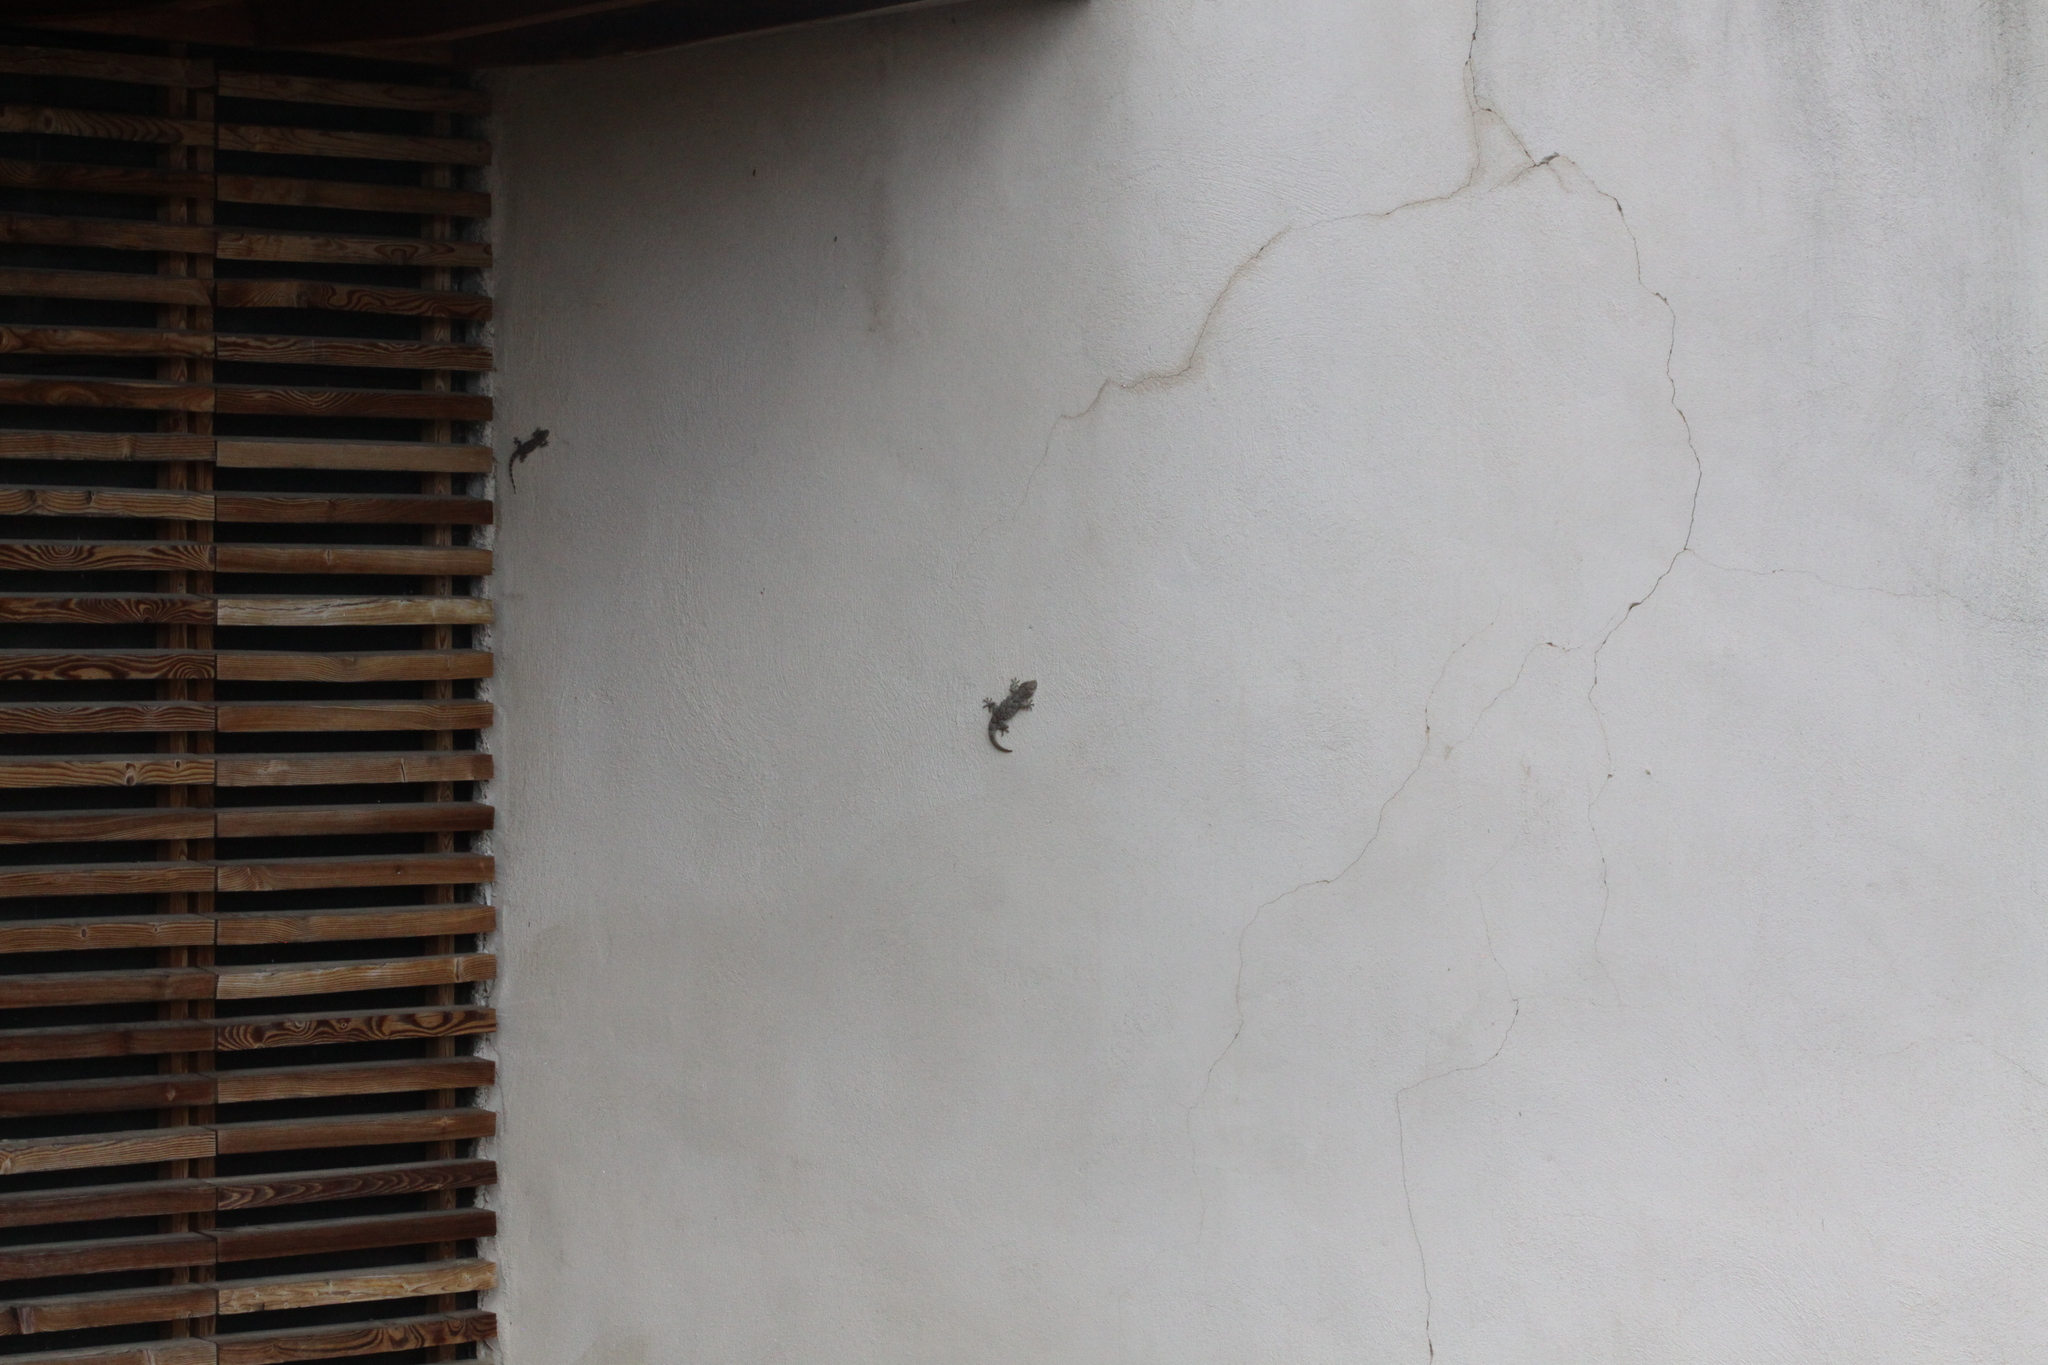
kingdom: Animalia
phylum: Chordata
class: Squamata
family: Phyllodactylidae
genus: Tarentola
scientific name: Tarentola mauritanica
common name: Moorish gecko
